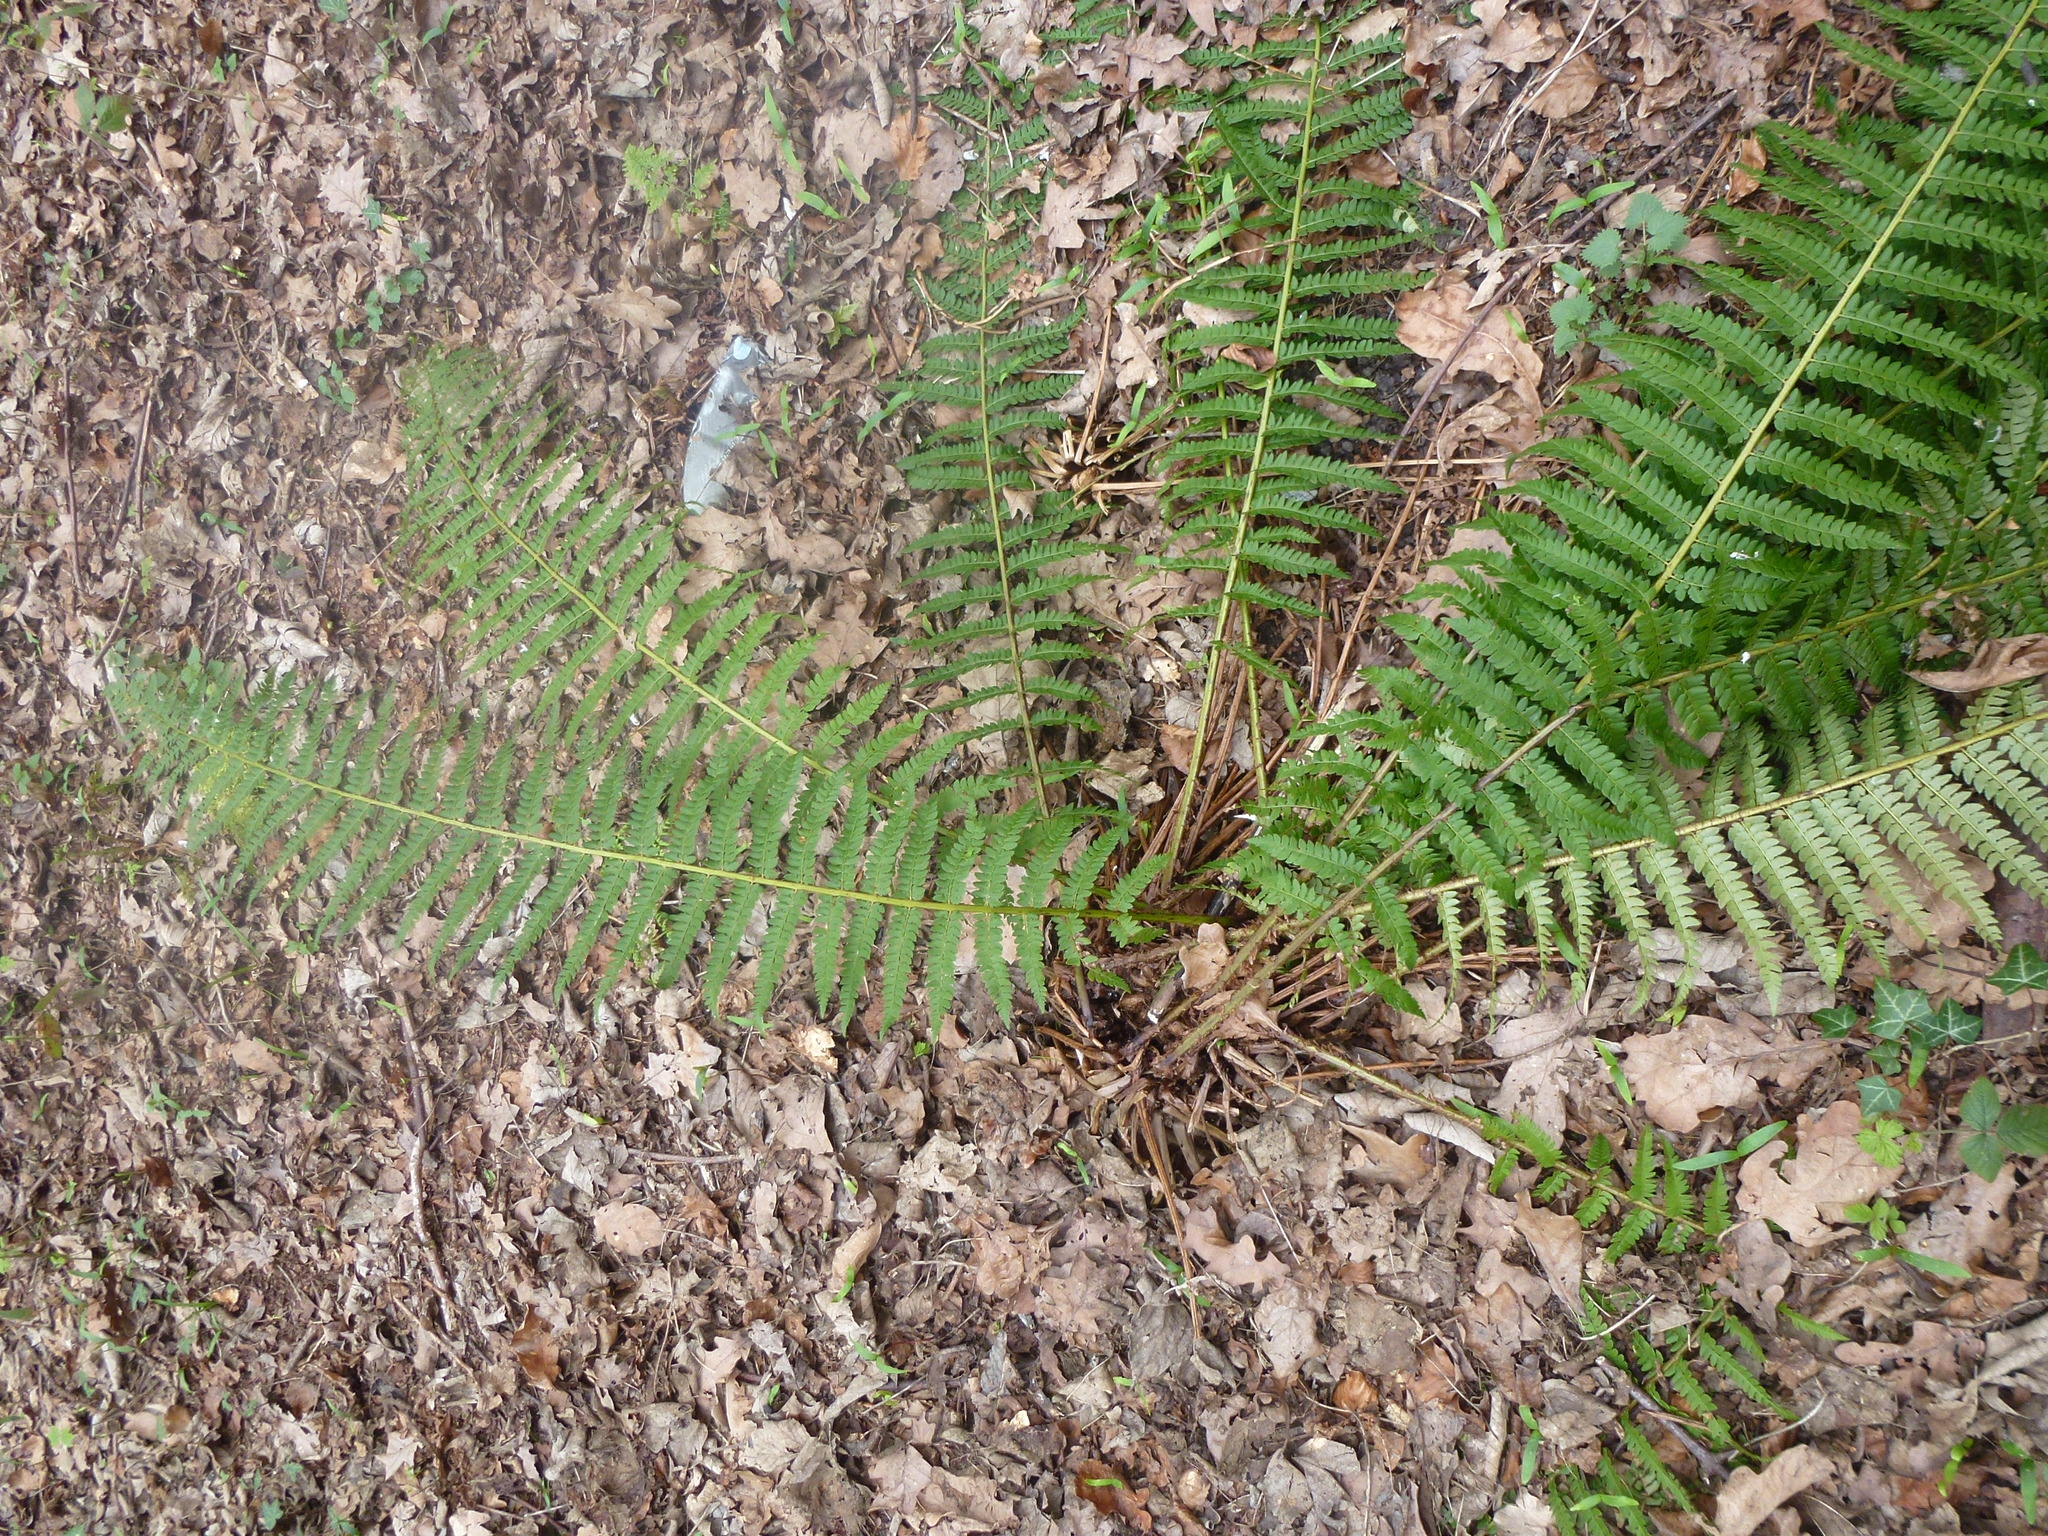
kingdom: Plantae
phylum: Tracheophyta
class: Polypodiopsida
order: Polypodiales
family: Dryopteridaceae
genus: Polystichum
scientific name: Polystichum setiferum
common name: Soft shield-fern
